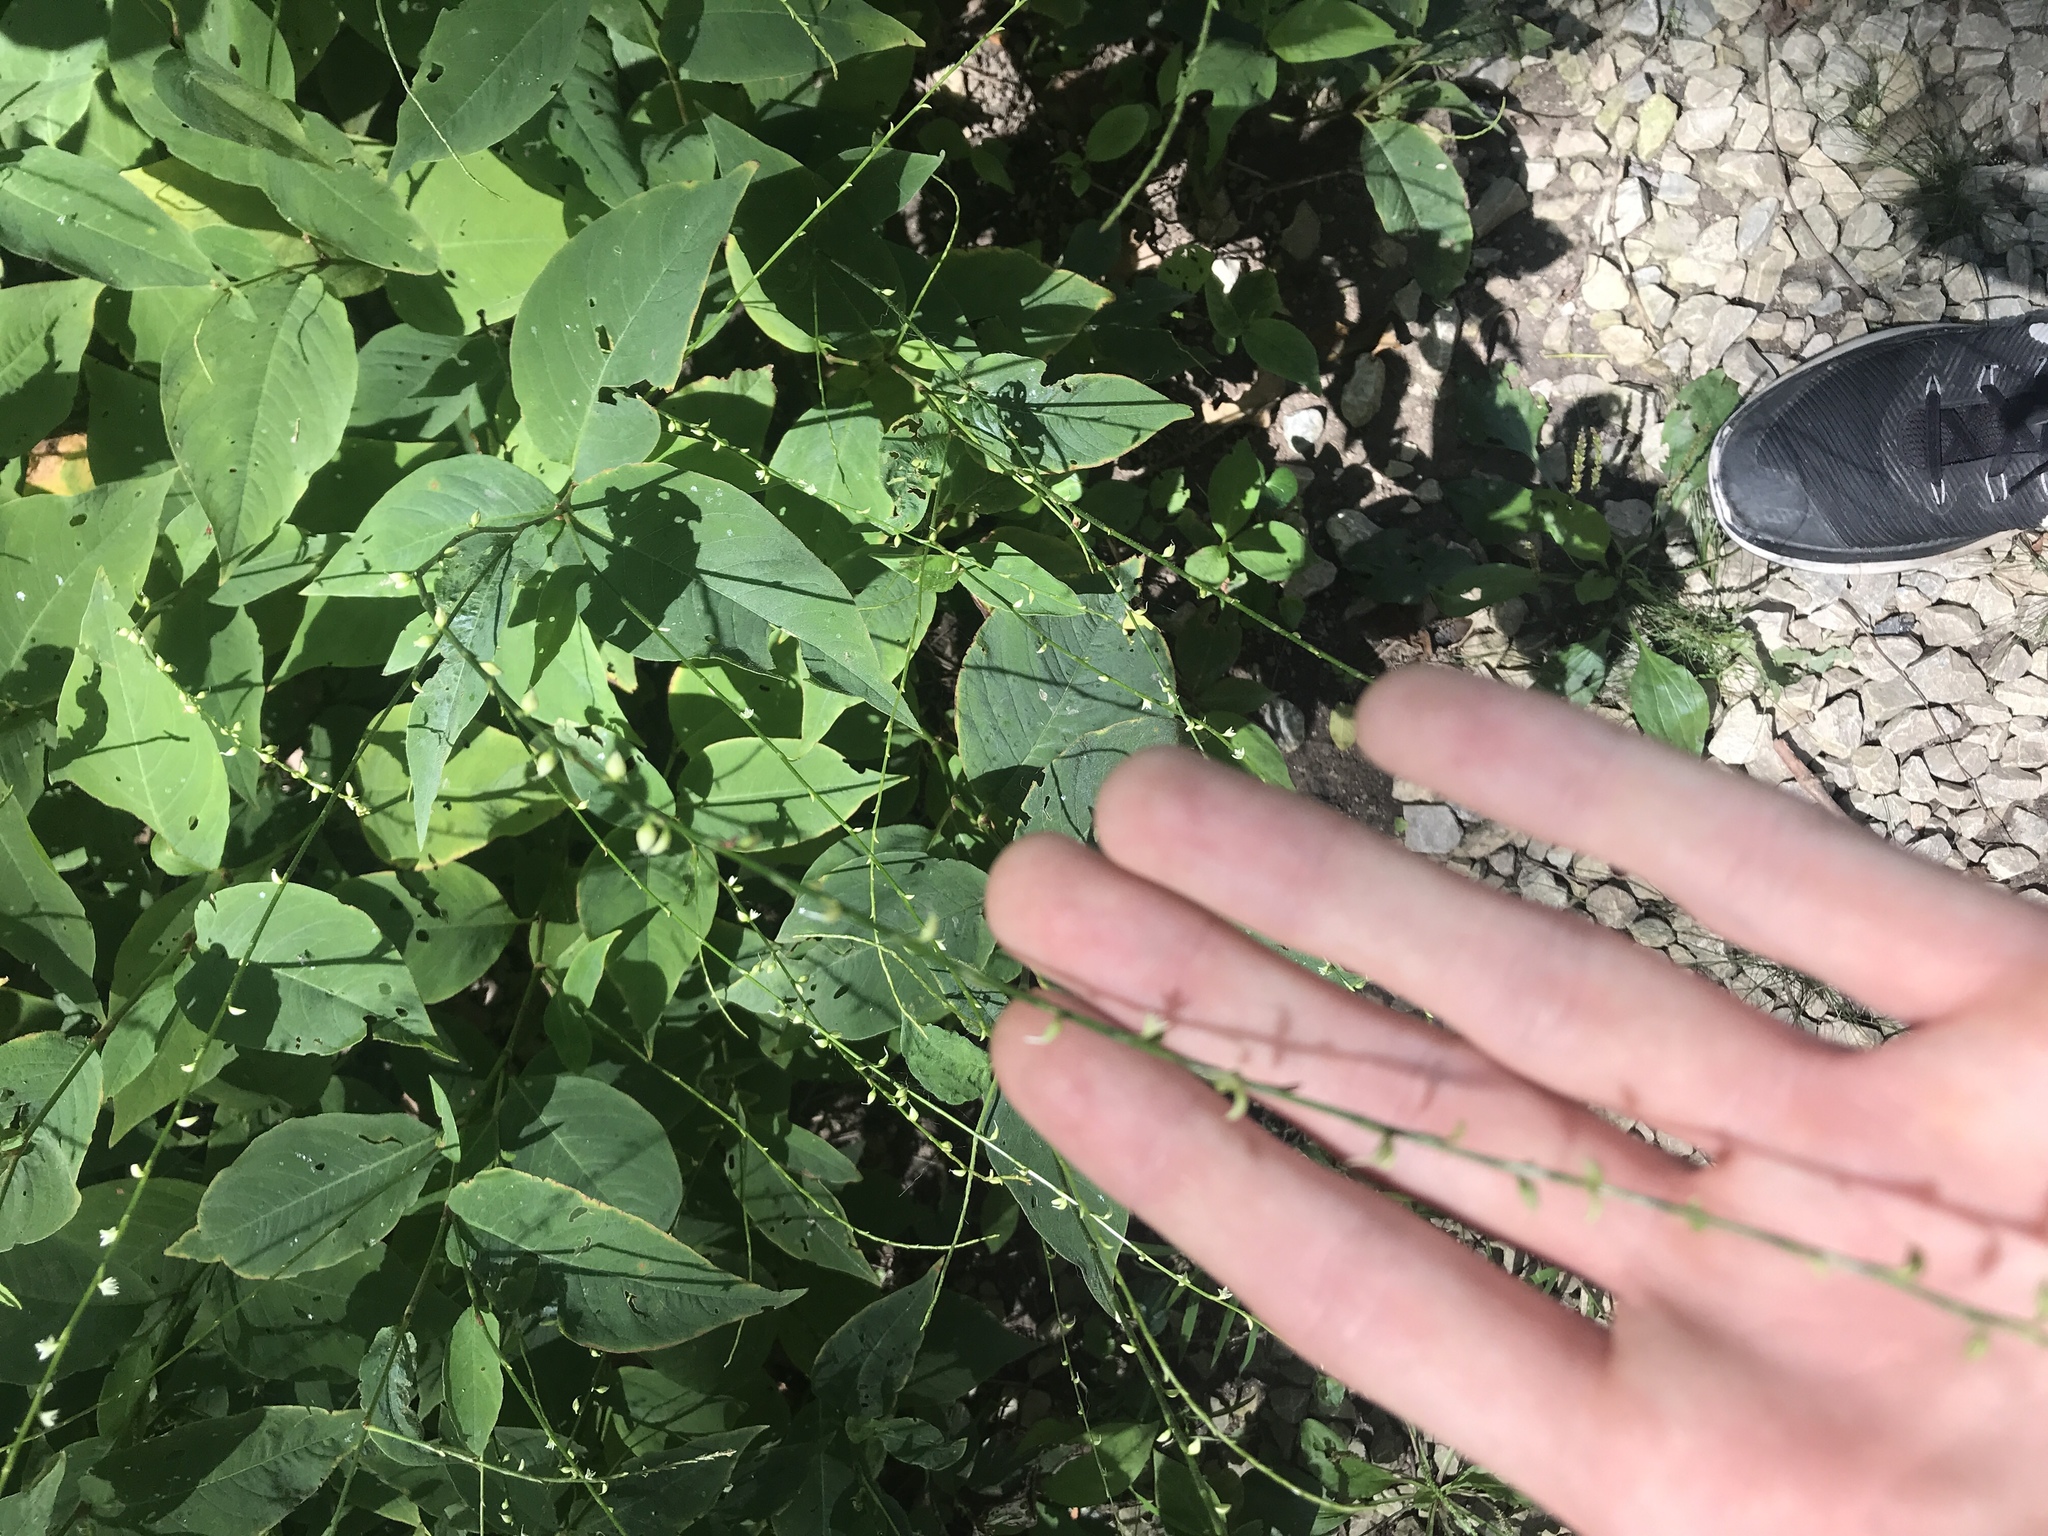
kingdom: Plantae
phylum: Tracheophyta
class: Magnoliopsida
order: Caryophyllales
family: Polygonaceae
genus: Persicaria
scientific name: Persicaria virginiana
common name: Jumpseed
